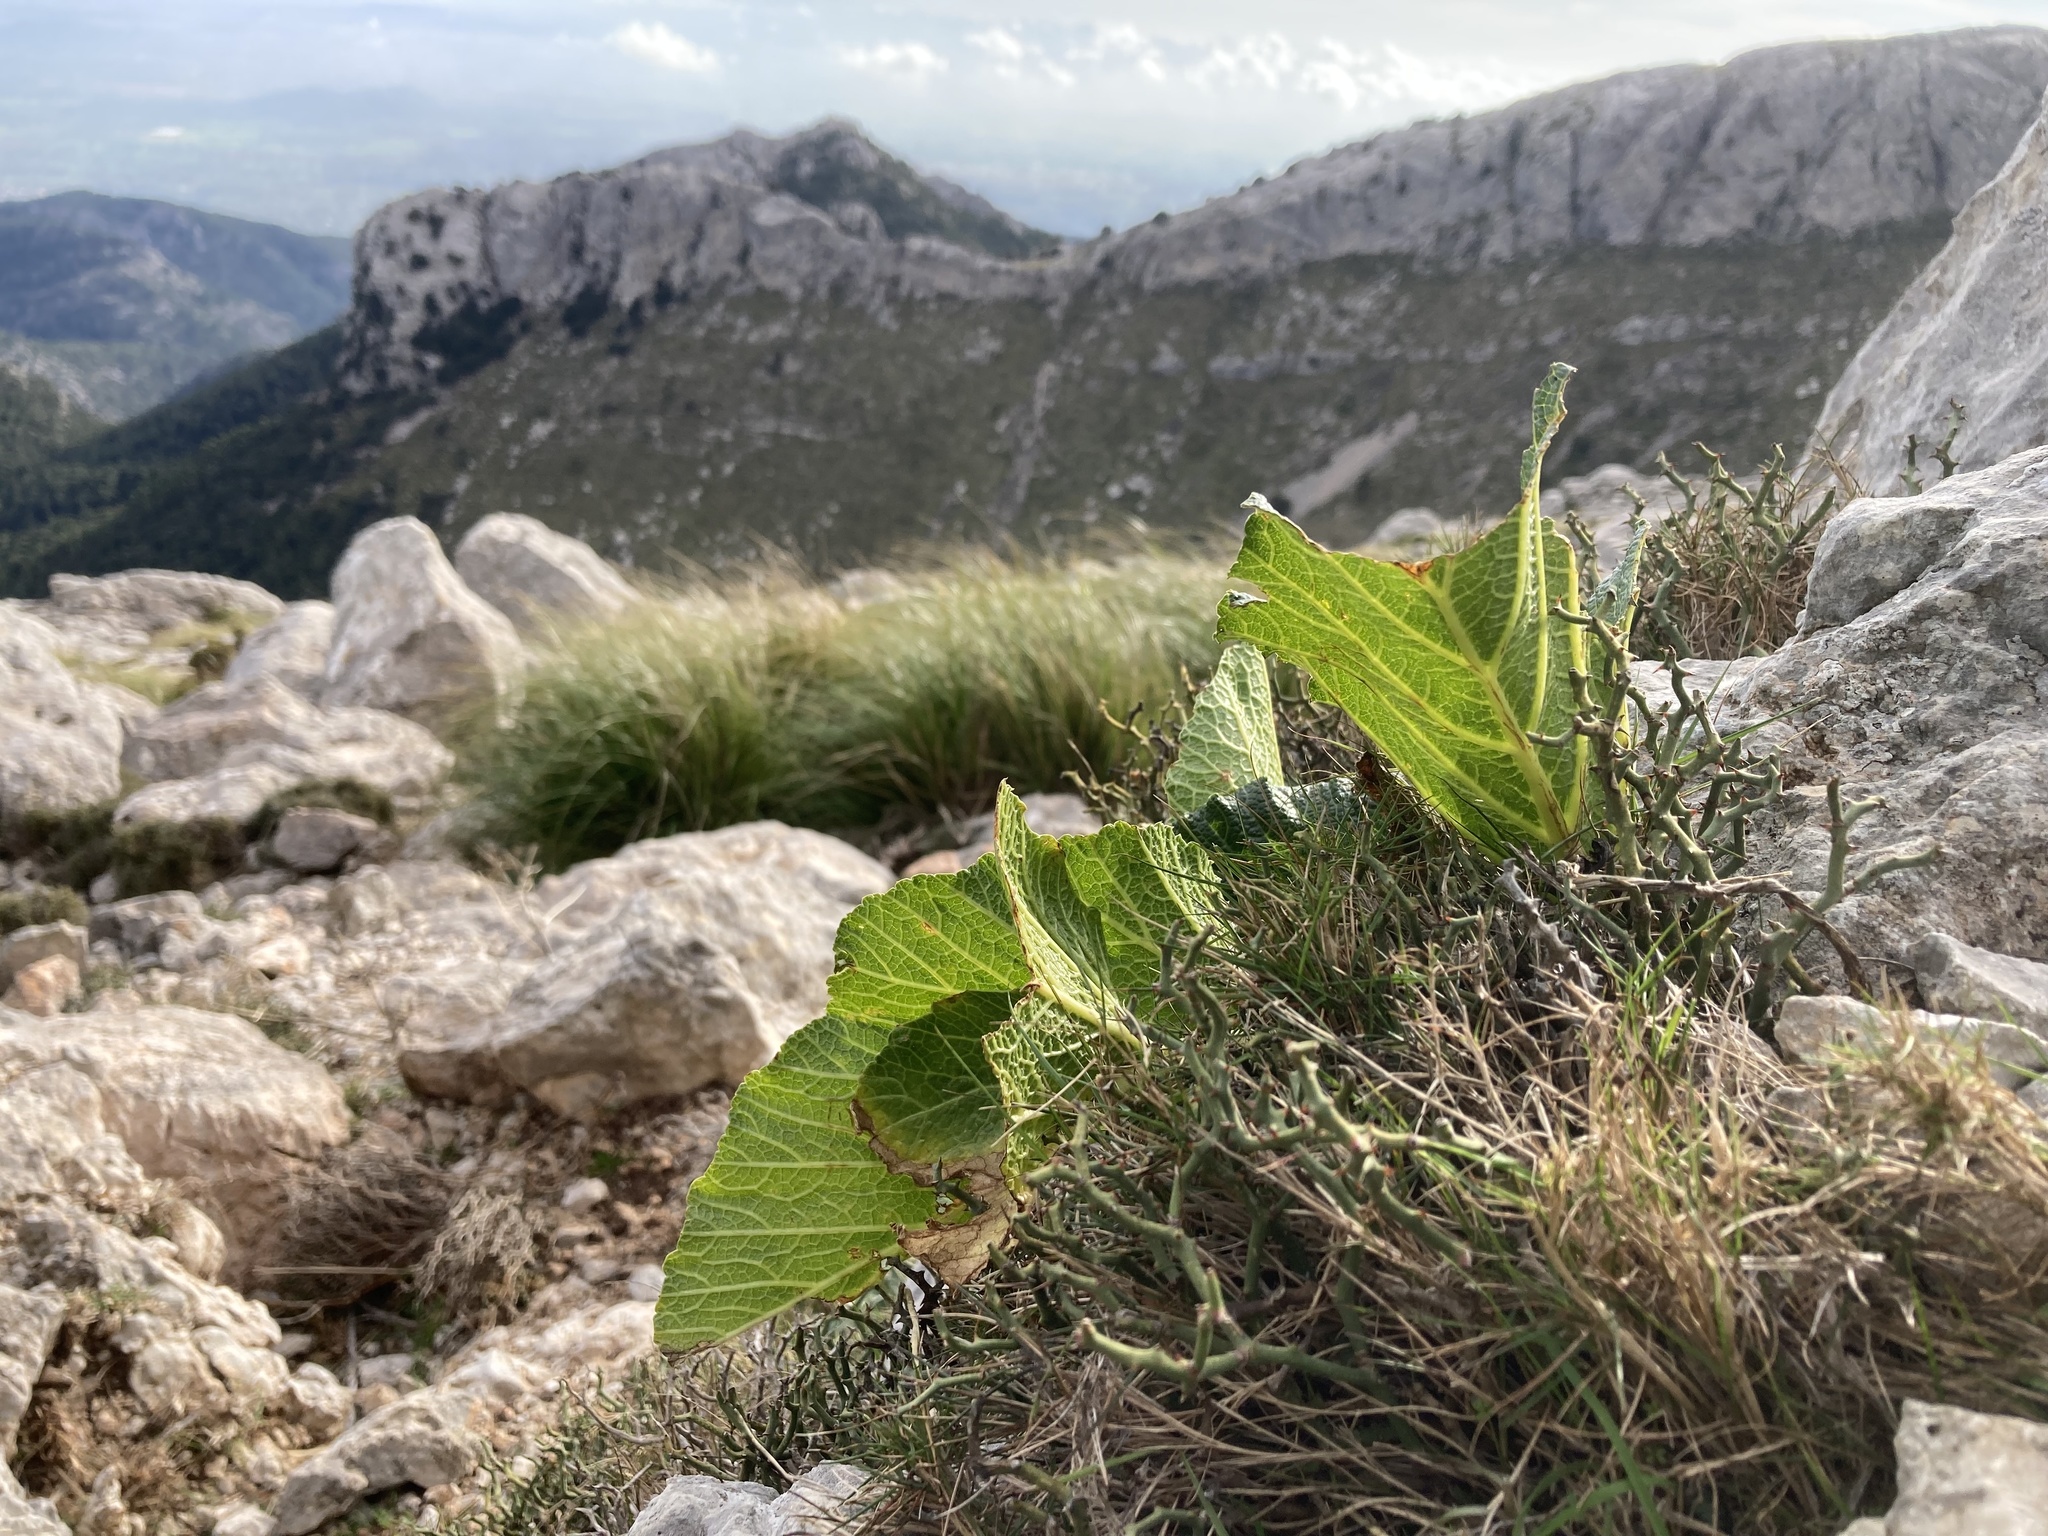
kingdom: Plantae
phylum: Tracheophyta
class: Magnoliopsida
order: Apiales
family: Apiaceae
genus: Pastinaca
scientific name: Pastinaca lucida
